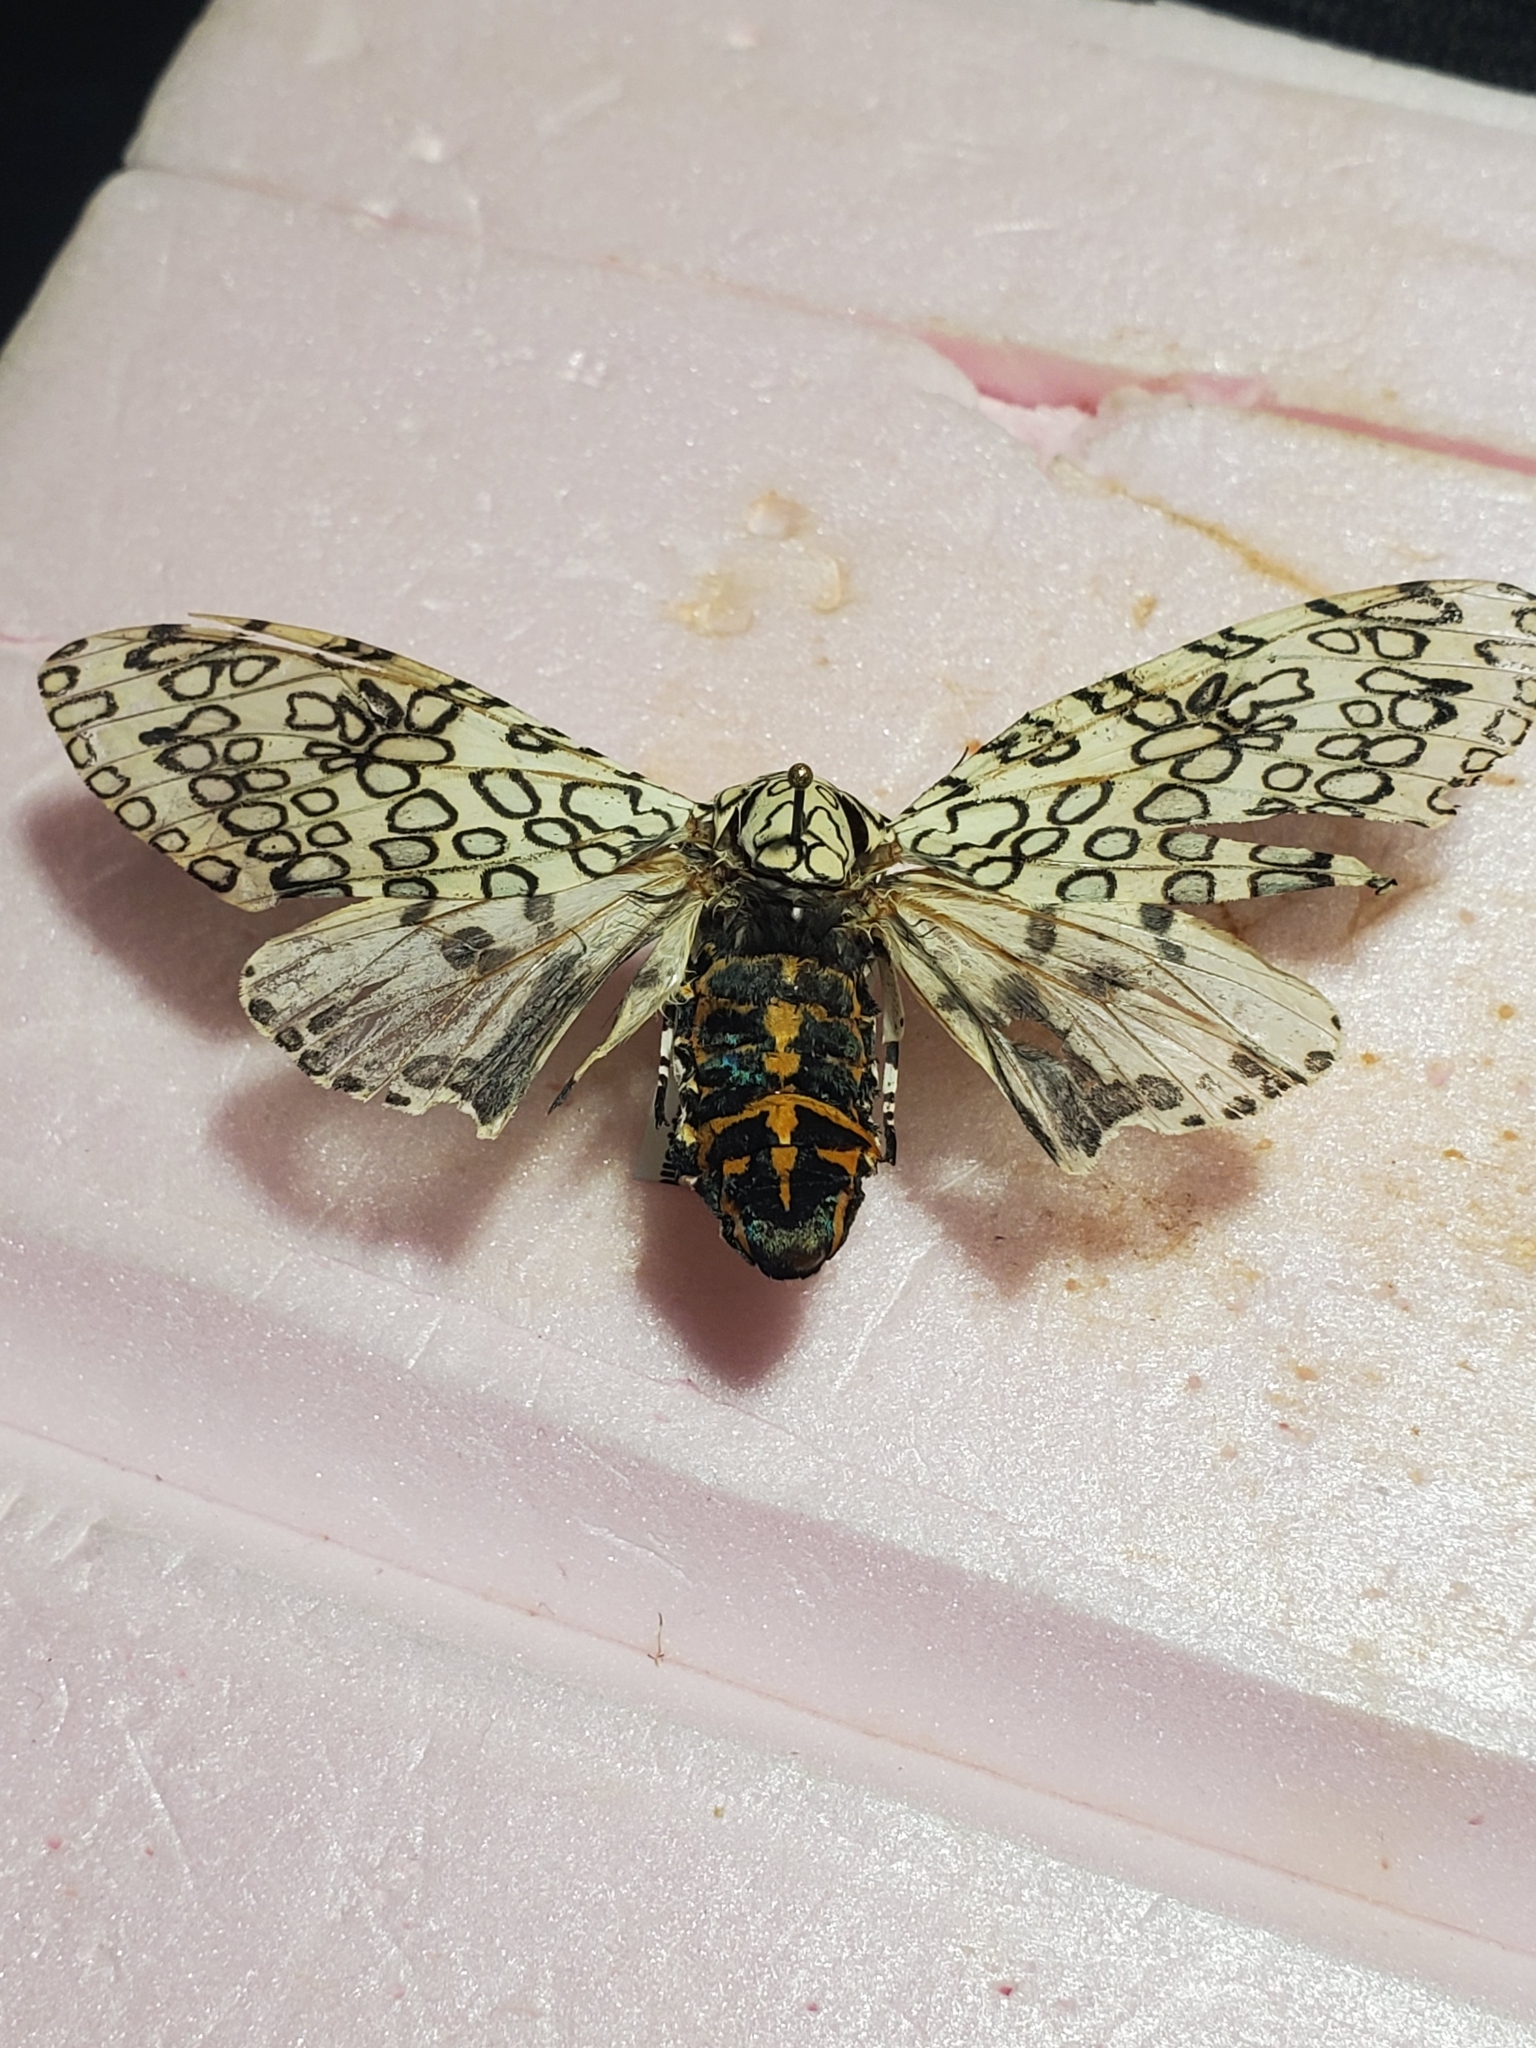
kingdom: Animalia
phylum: Arthropoda
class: Insecta
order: Lepidoptera
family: Erebidae
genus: Hypercompe
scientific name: Hypercompe scribonia
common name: Giant leopard moth
